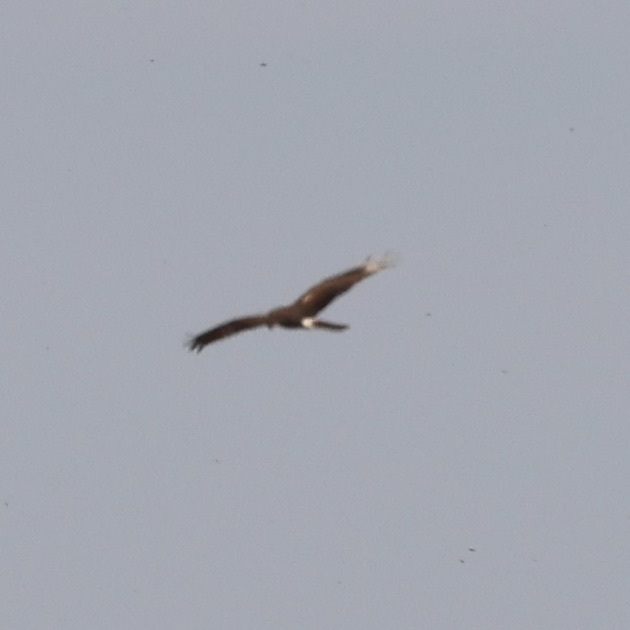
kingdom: Animalia
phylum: Chordata
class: Aves
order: Accipitriformes
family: Accipitridae
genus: Circus
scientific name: Circus cyaneus
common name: Hen harrier
